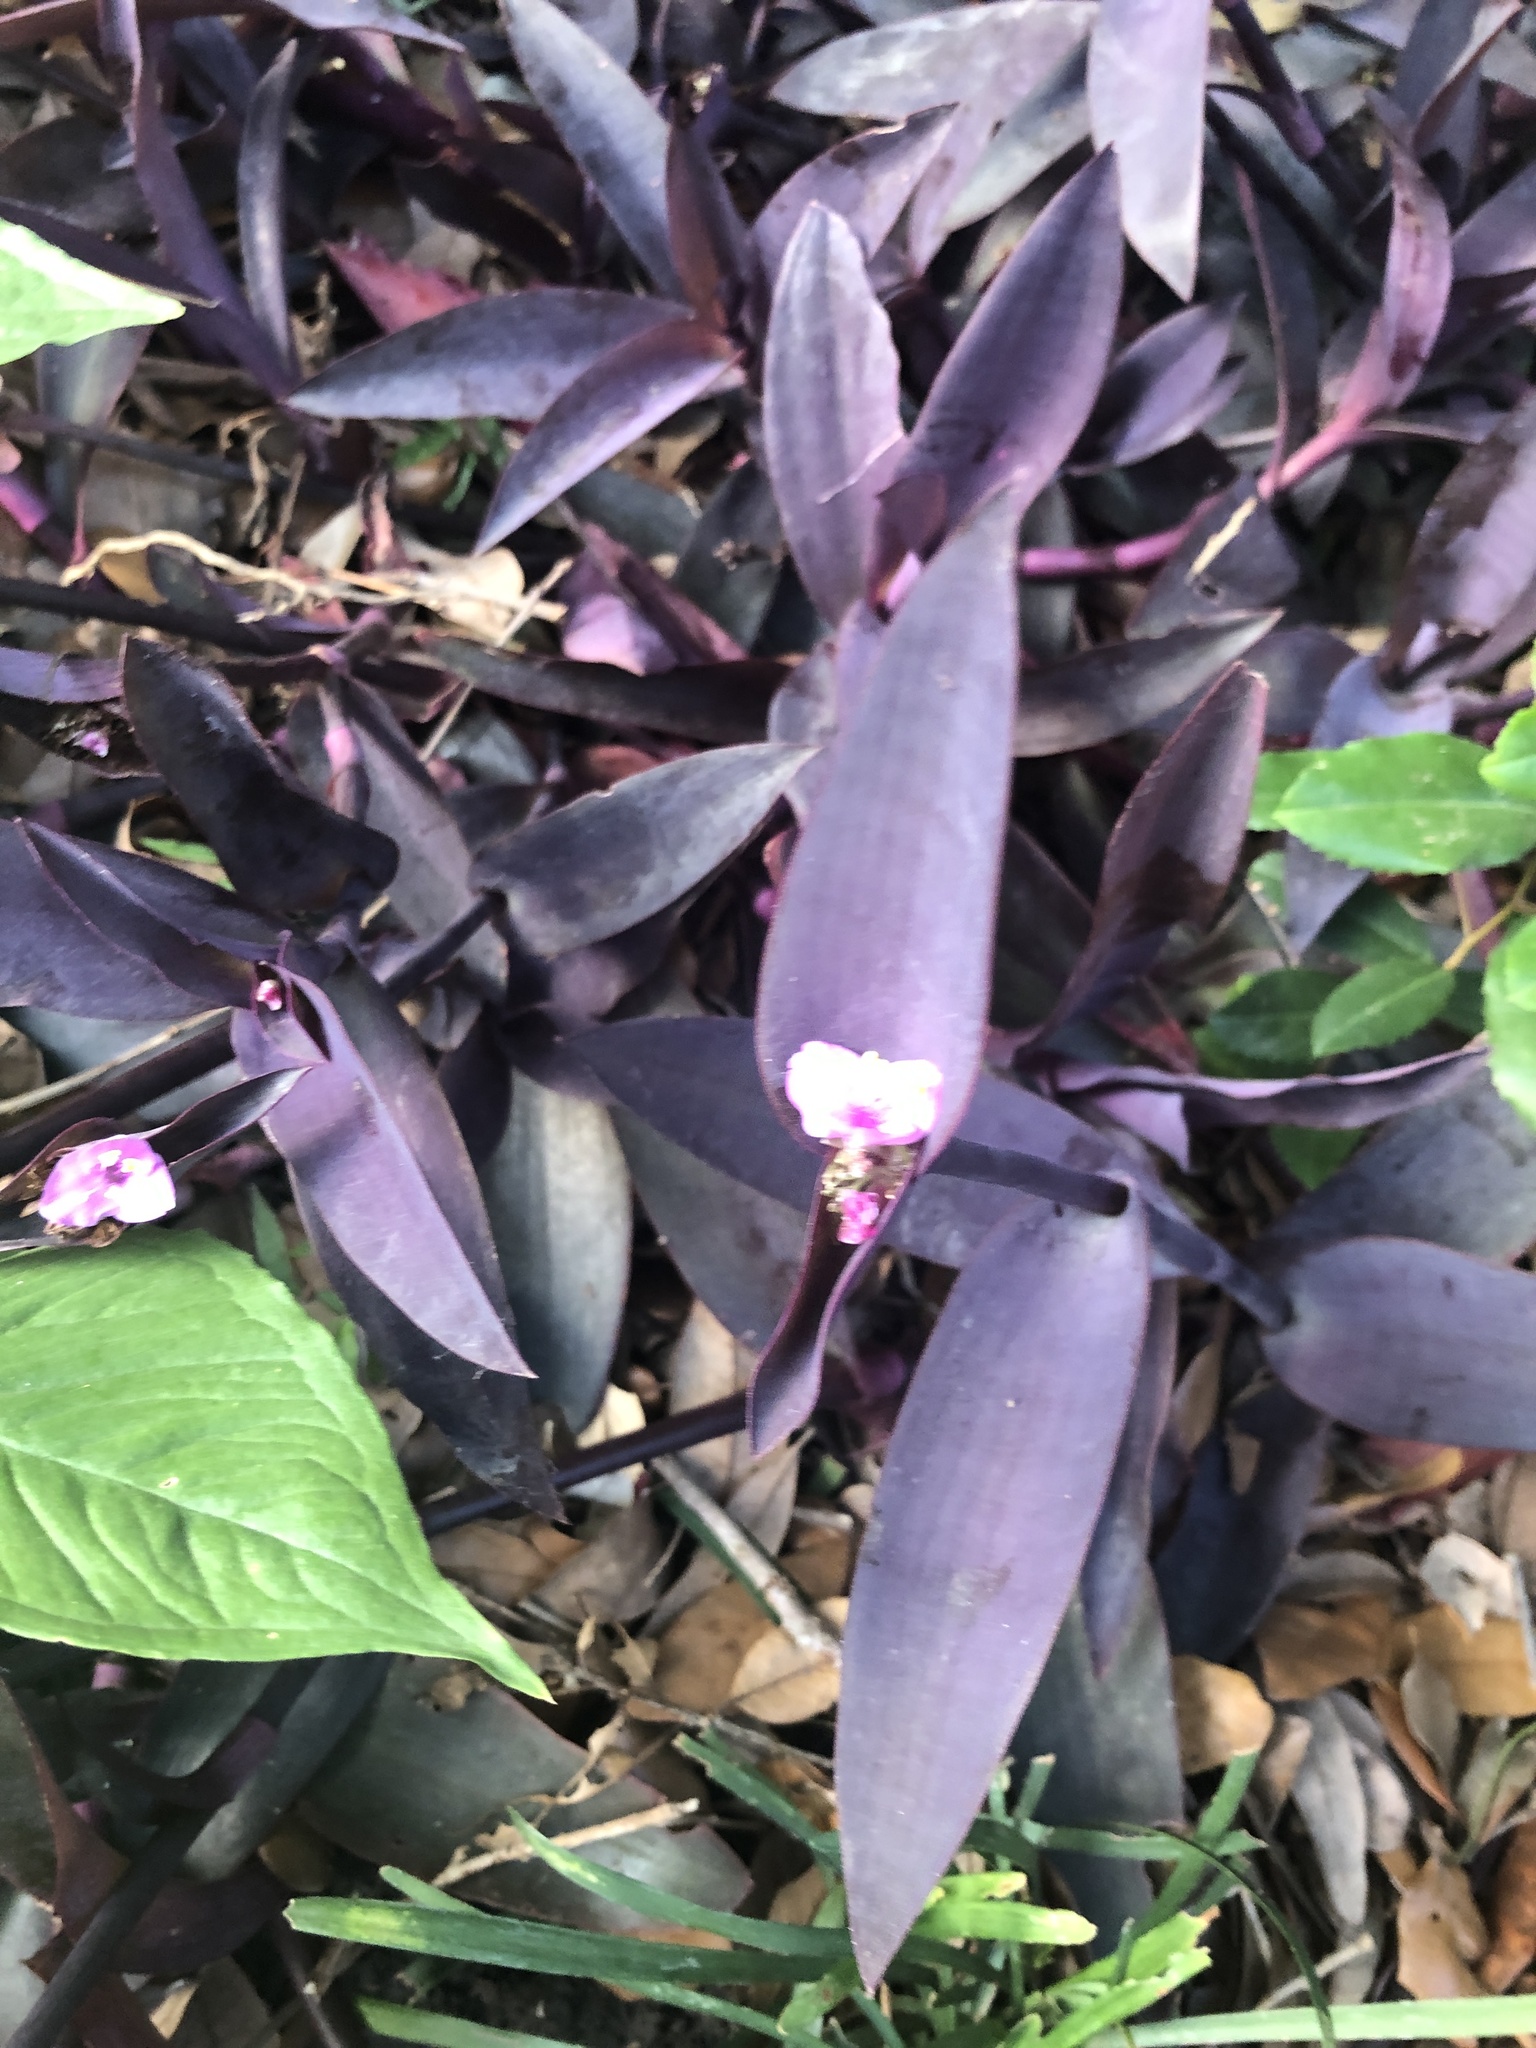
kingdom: Plantae
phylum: Tracheophyta
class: Liliopsida
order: Commelinales
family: Commelinaceae
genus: Tradescantia
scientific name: Tradescantia pallida
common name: Purpleheart
